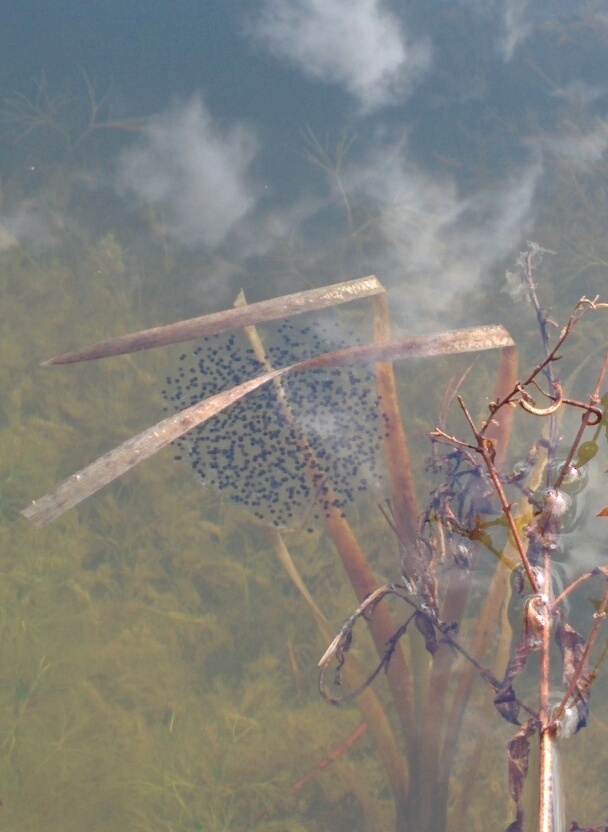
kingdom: Animalia
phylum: Chordata
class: Amphibia
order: Anura
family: Ranidae
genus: Rana
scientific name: Rana dalmatina
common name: Agile frog
